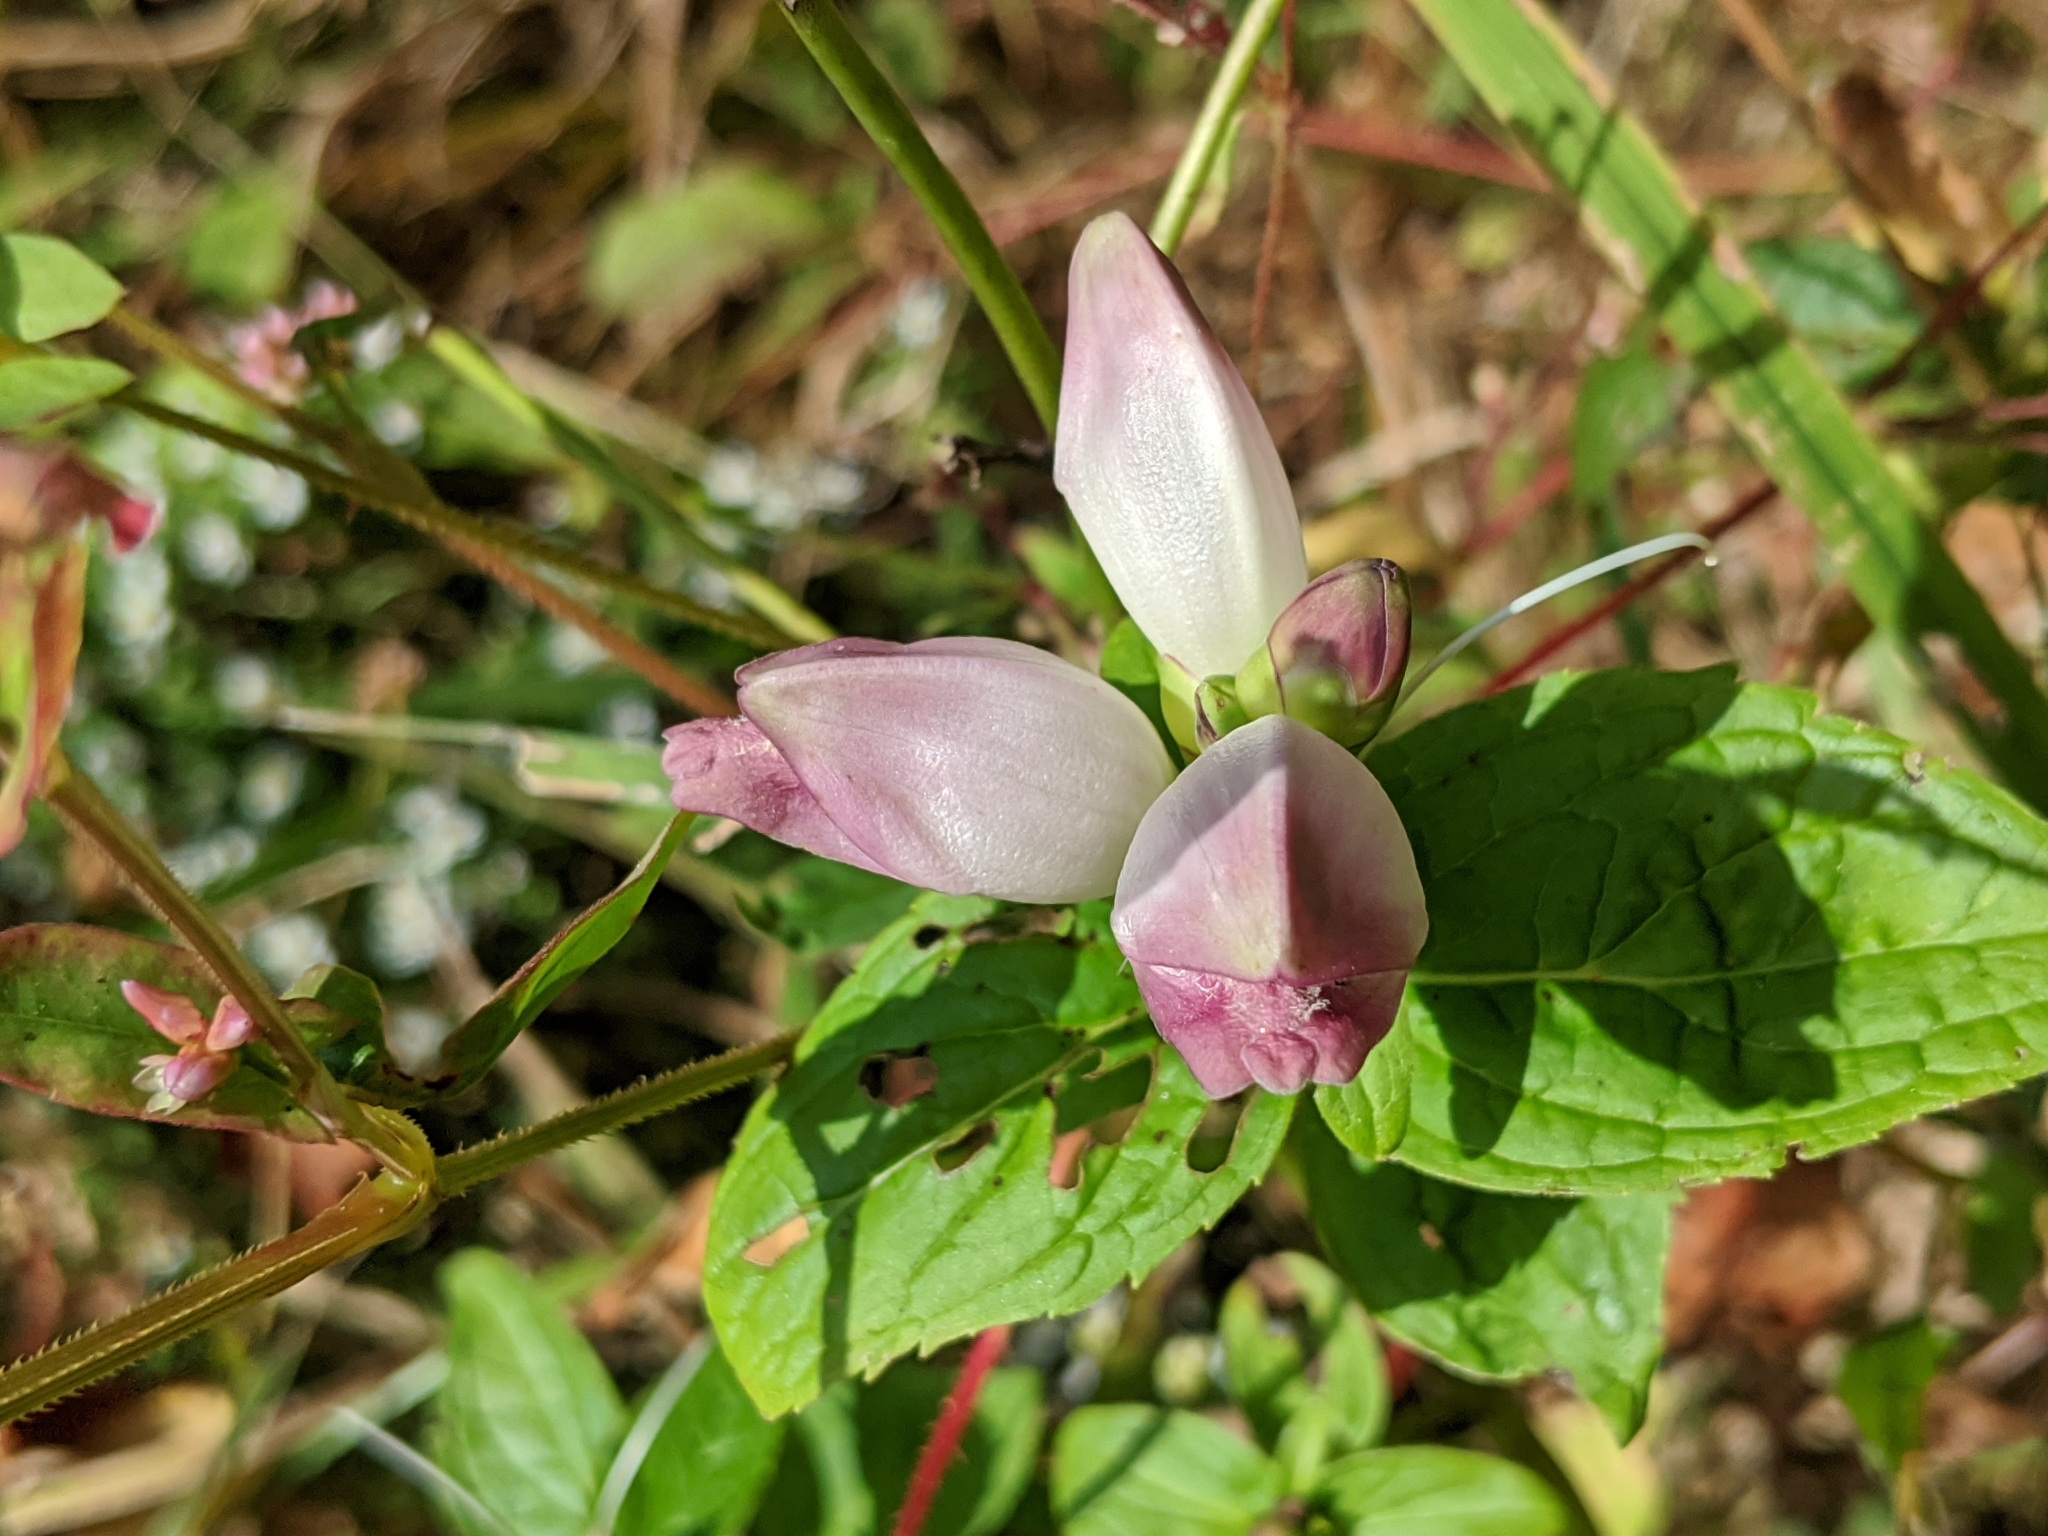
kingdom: Plantae
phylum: Tracheophyta
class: Magnoliopsida
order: Lamiales
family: Plantaginaceae
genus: Chelone
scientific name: Chelone glabra
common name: Snakehead
